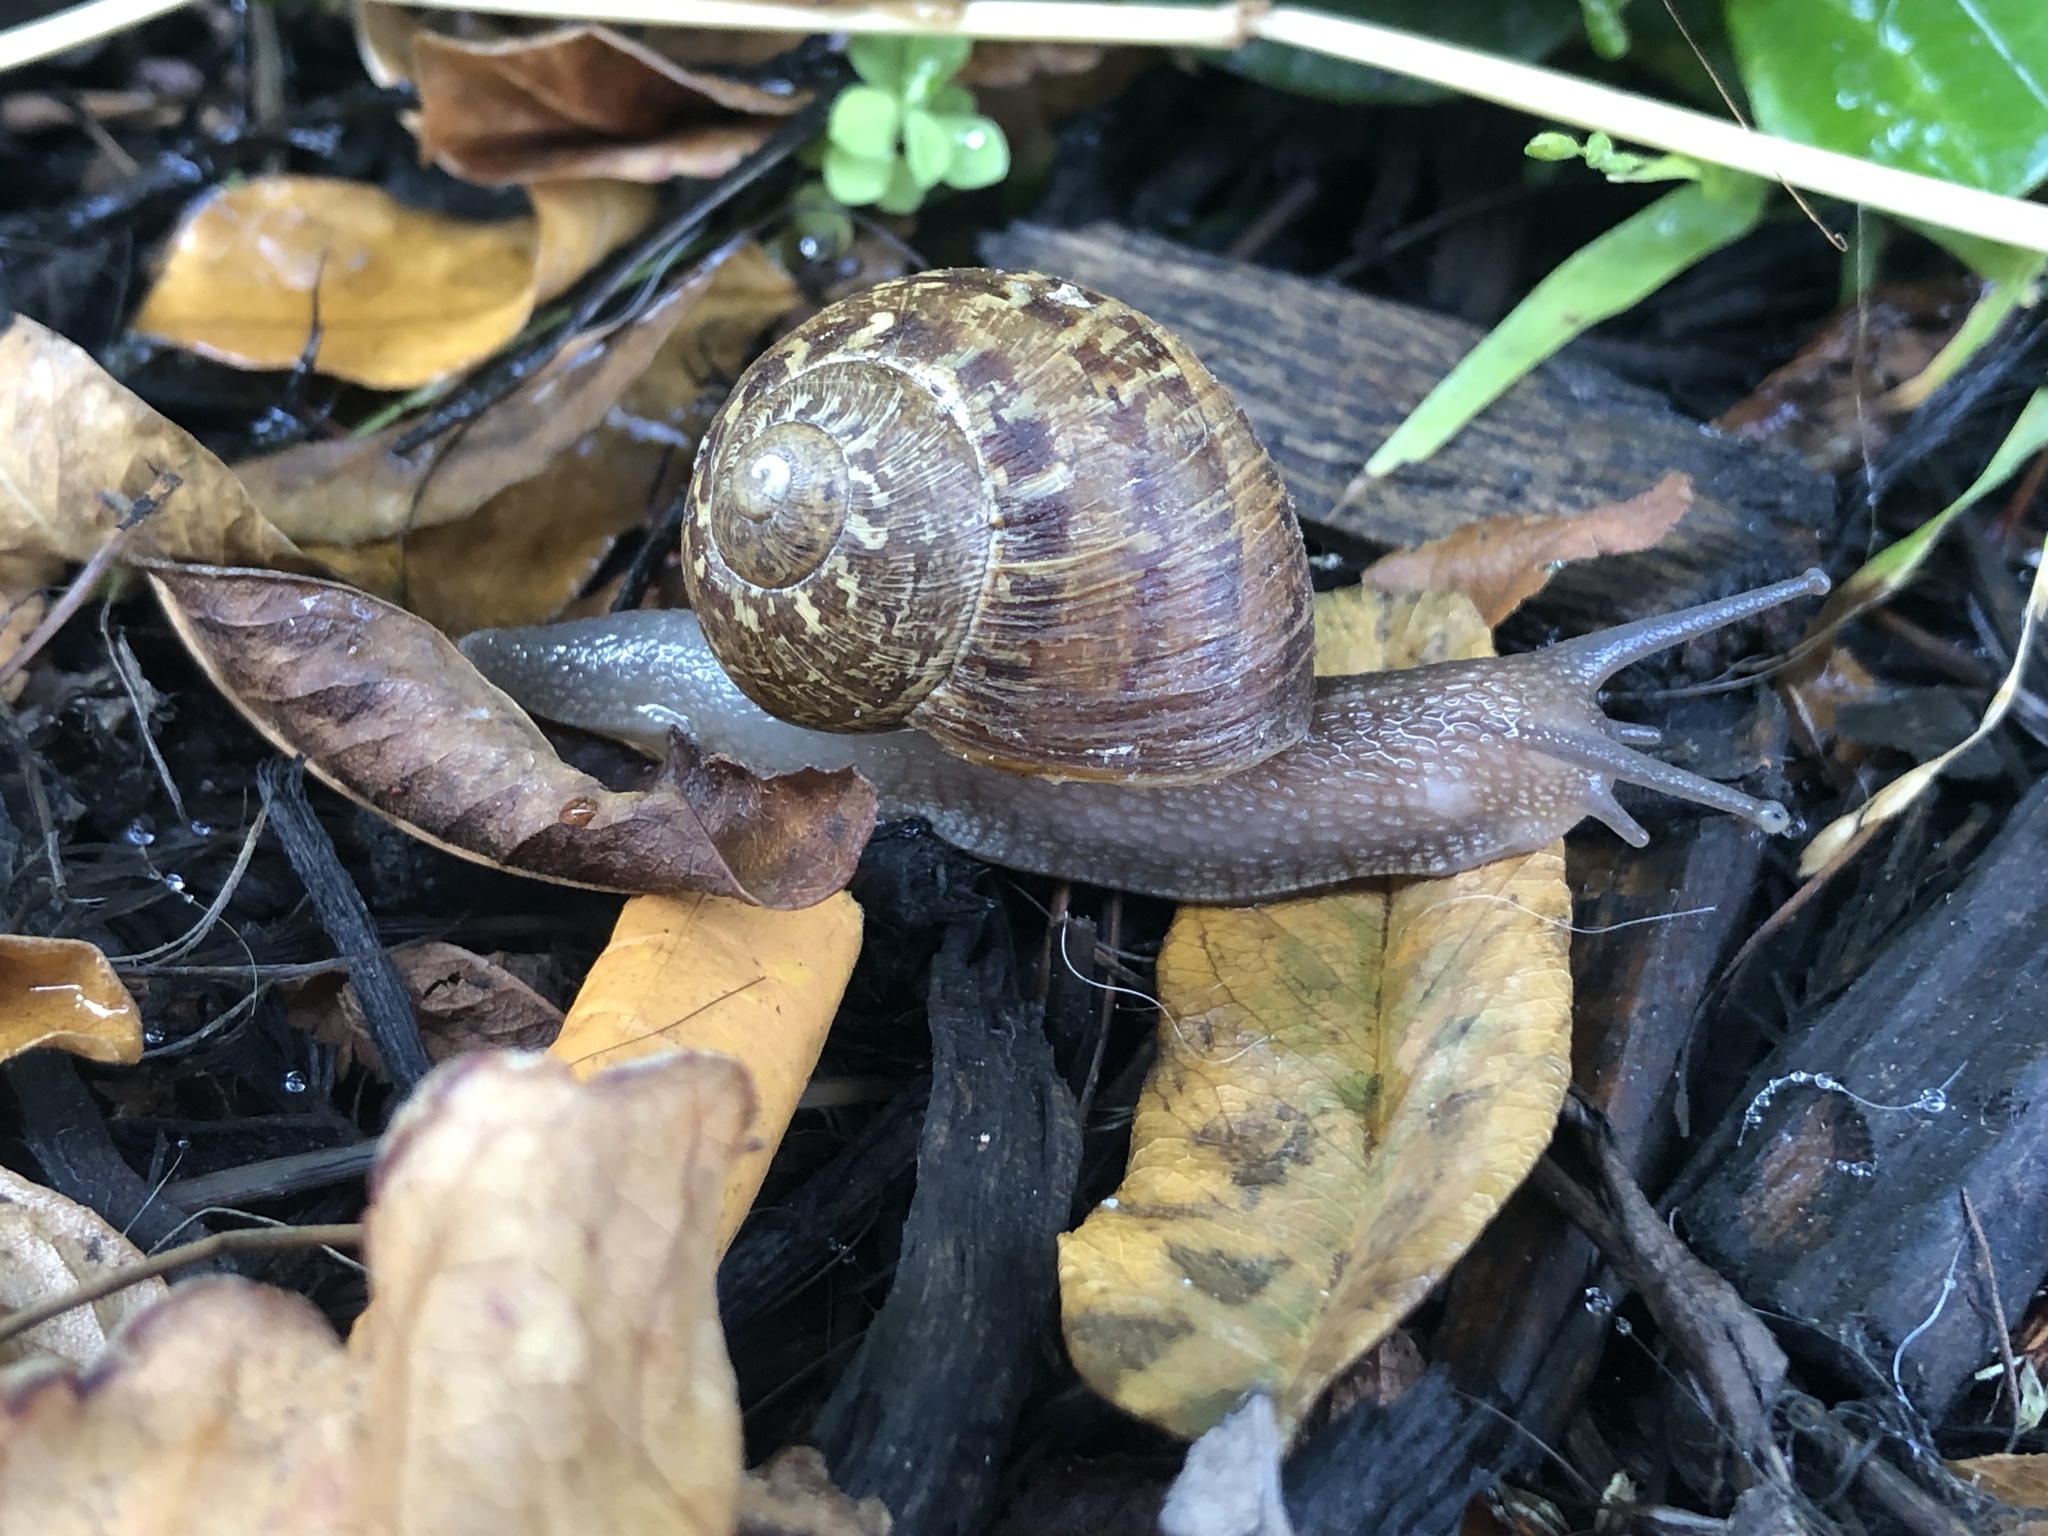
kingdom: Animalia
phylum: Mollusca
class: Gastropoda
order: Stylommatophora
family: Helicidae
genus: Cornu
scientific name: Cornu aspersum
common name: Brown garden snail
